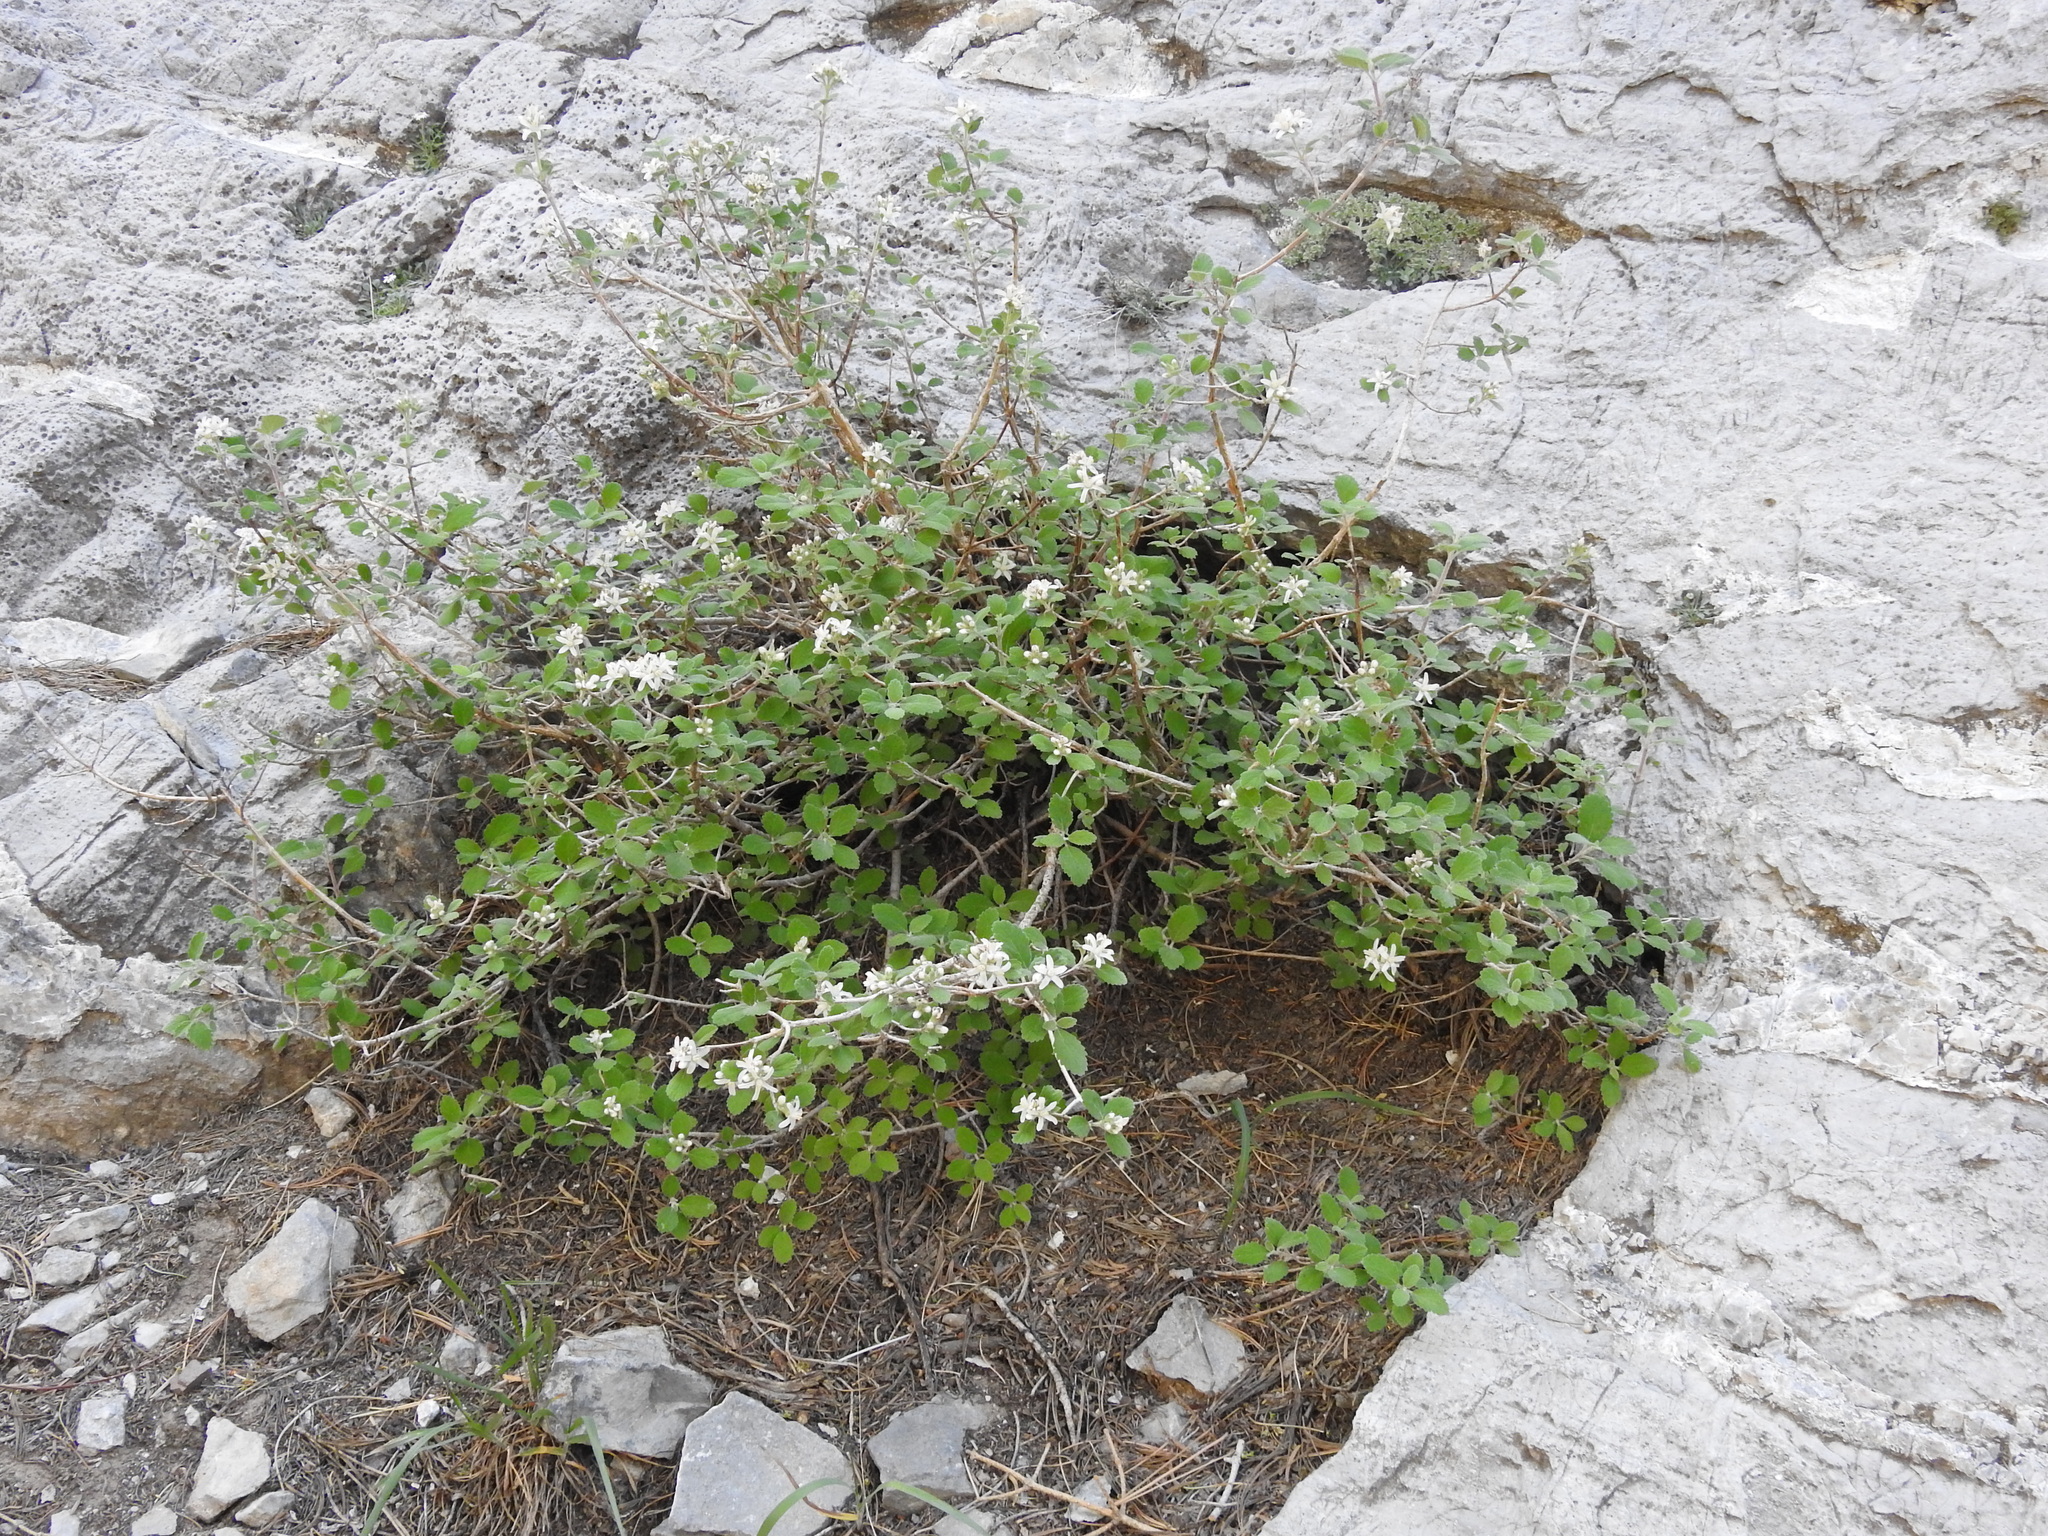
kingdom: Plantae
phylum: Tracheophyta
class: Magnoliopsida
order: Cornales
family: Hydrangeaceae
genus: Jamesia
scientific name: Jamesia americana
